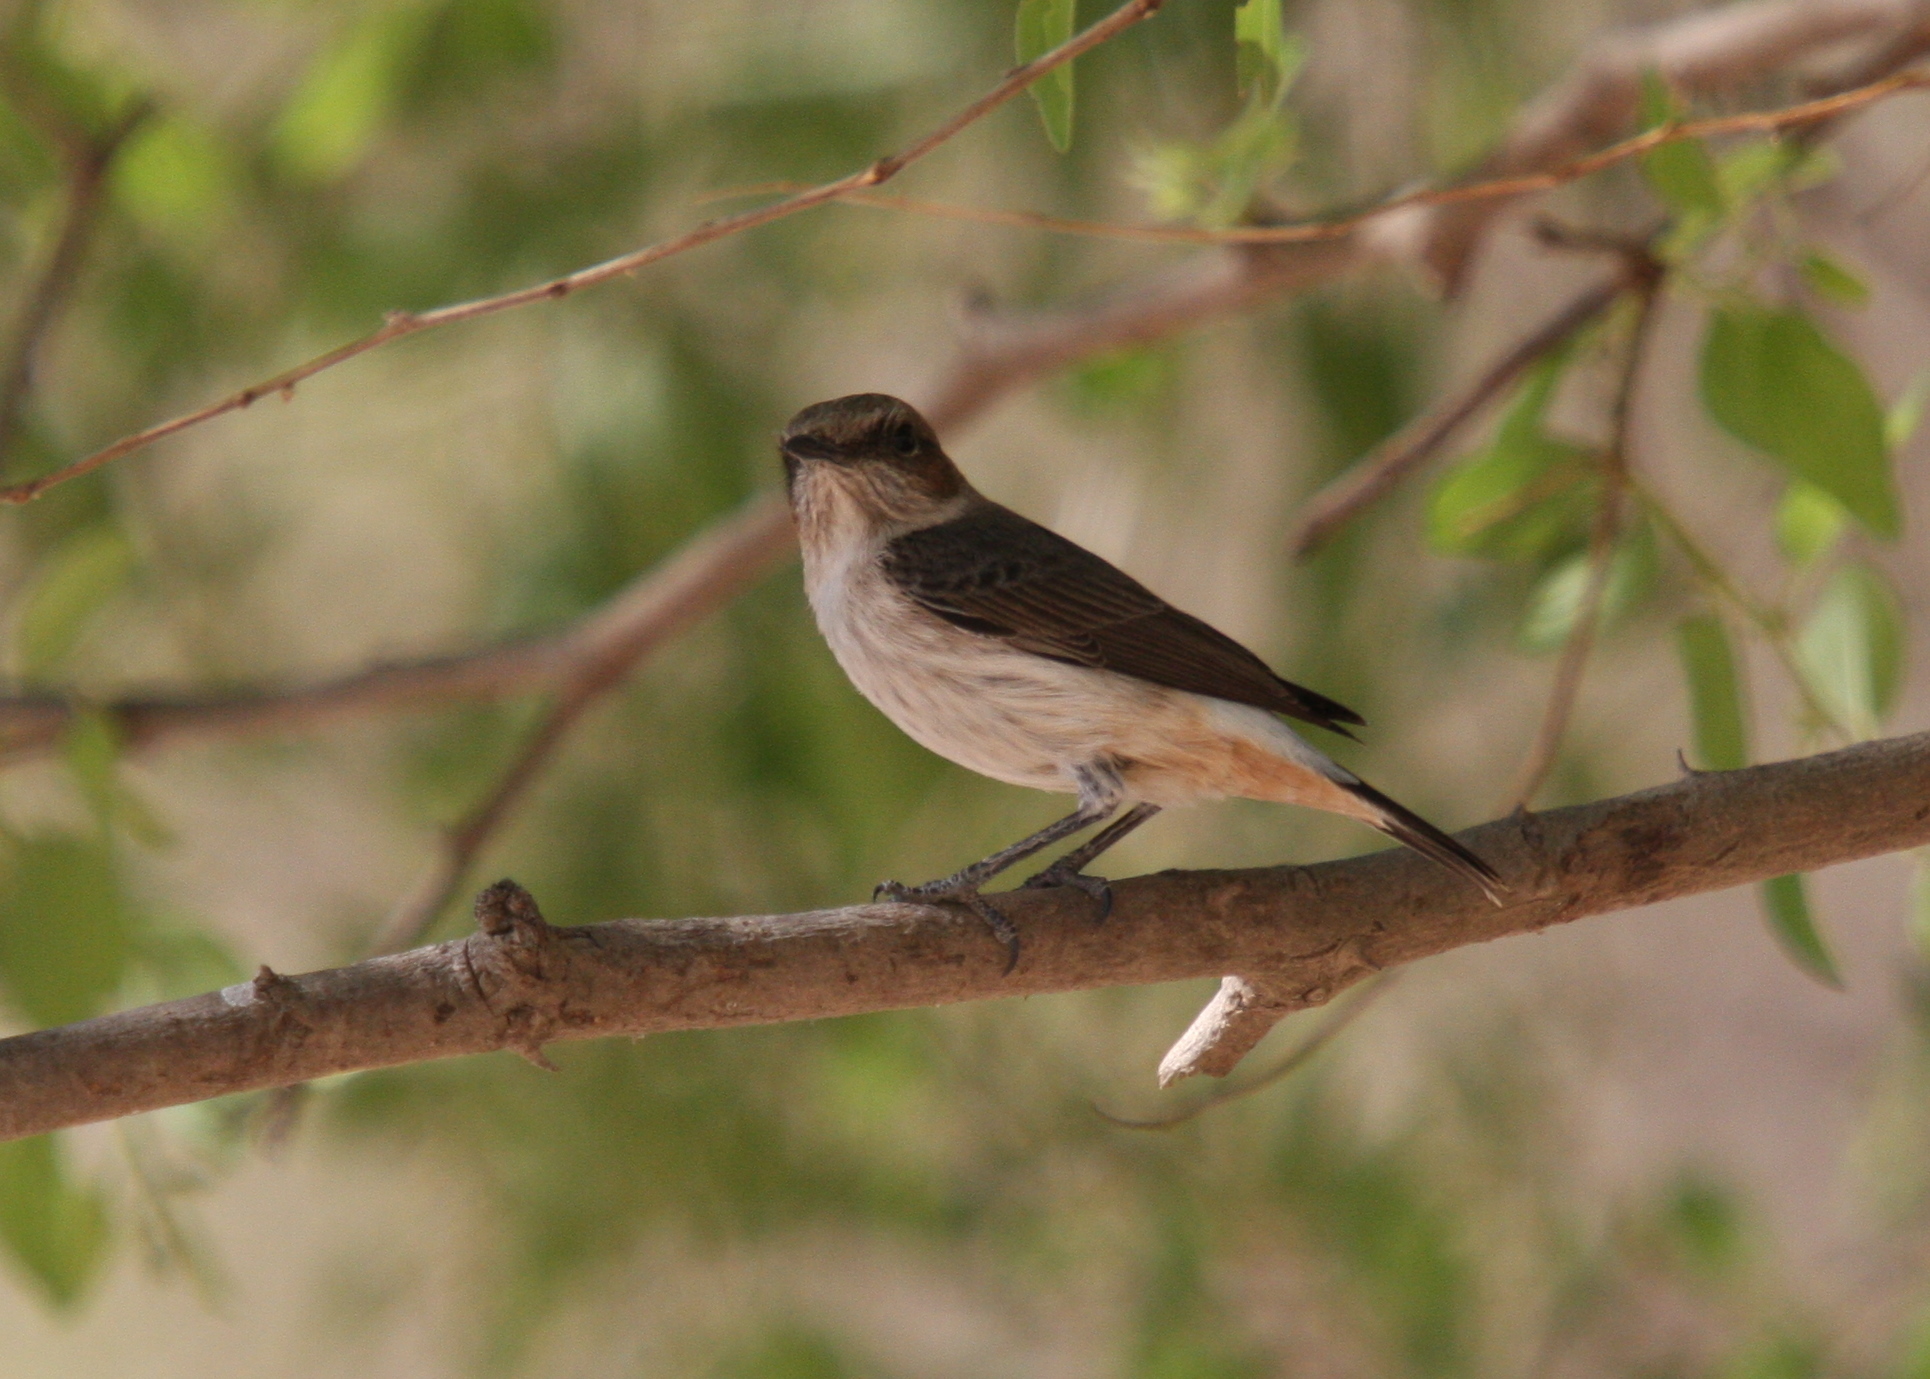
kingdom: Animalia
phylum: Chordata
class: Aves
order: Passeriformes
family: Muscicapidae
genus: Oenanthe
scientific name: Oenanthe lugentoides
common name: Arabian wheatear
